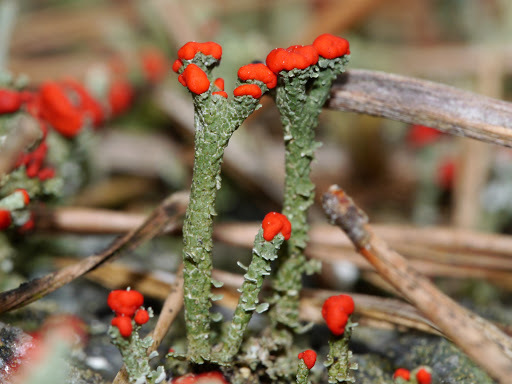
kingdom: Fungi
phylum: Ascomycota
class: Lecanoromycetes
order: Lecanorales
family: Cladoniaceae
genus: Cladonia
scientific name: Cladonia cristatella
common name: British soldier lichen
